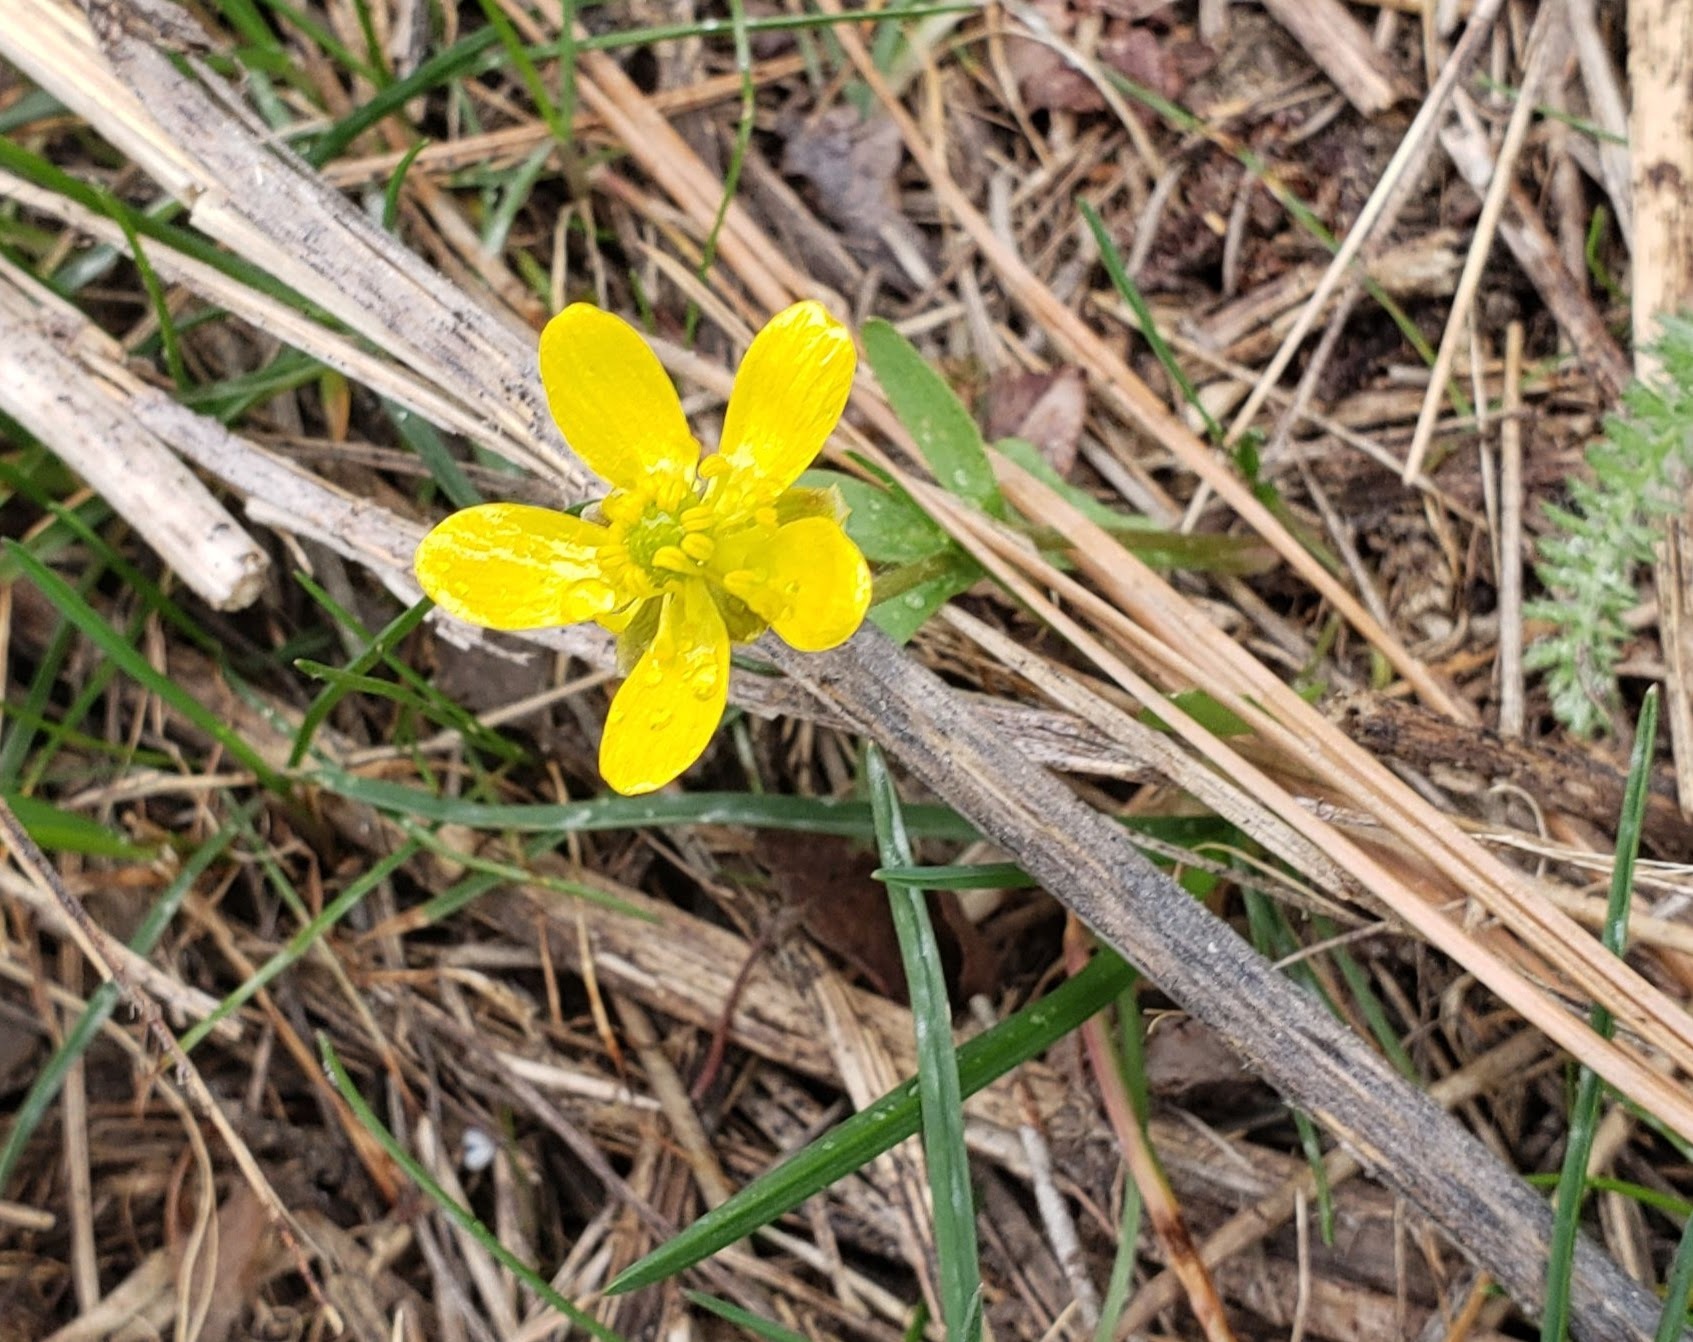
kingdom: Plantae
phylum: Tracheophyta
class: Magnoliopsida
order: Ranunculales
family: Ranunculaceae
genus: Ranunculus
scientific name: Ranunculus glaberrimus
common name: Sagebrush buttercup
